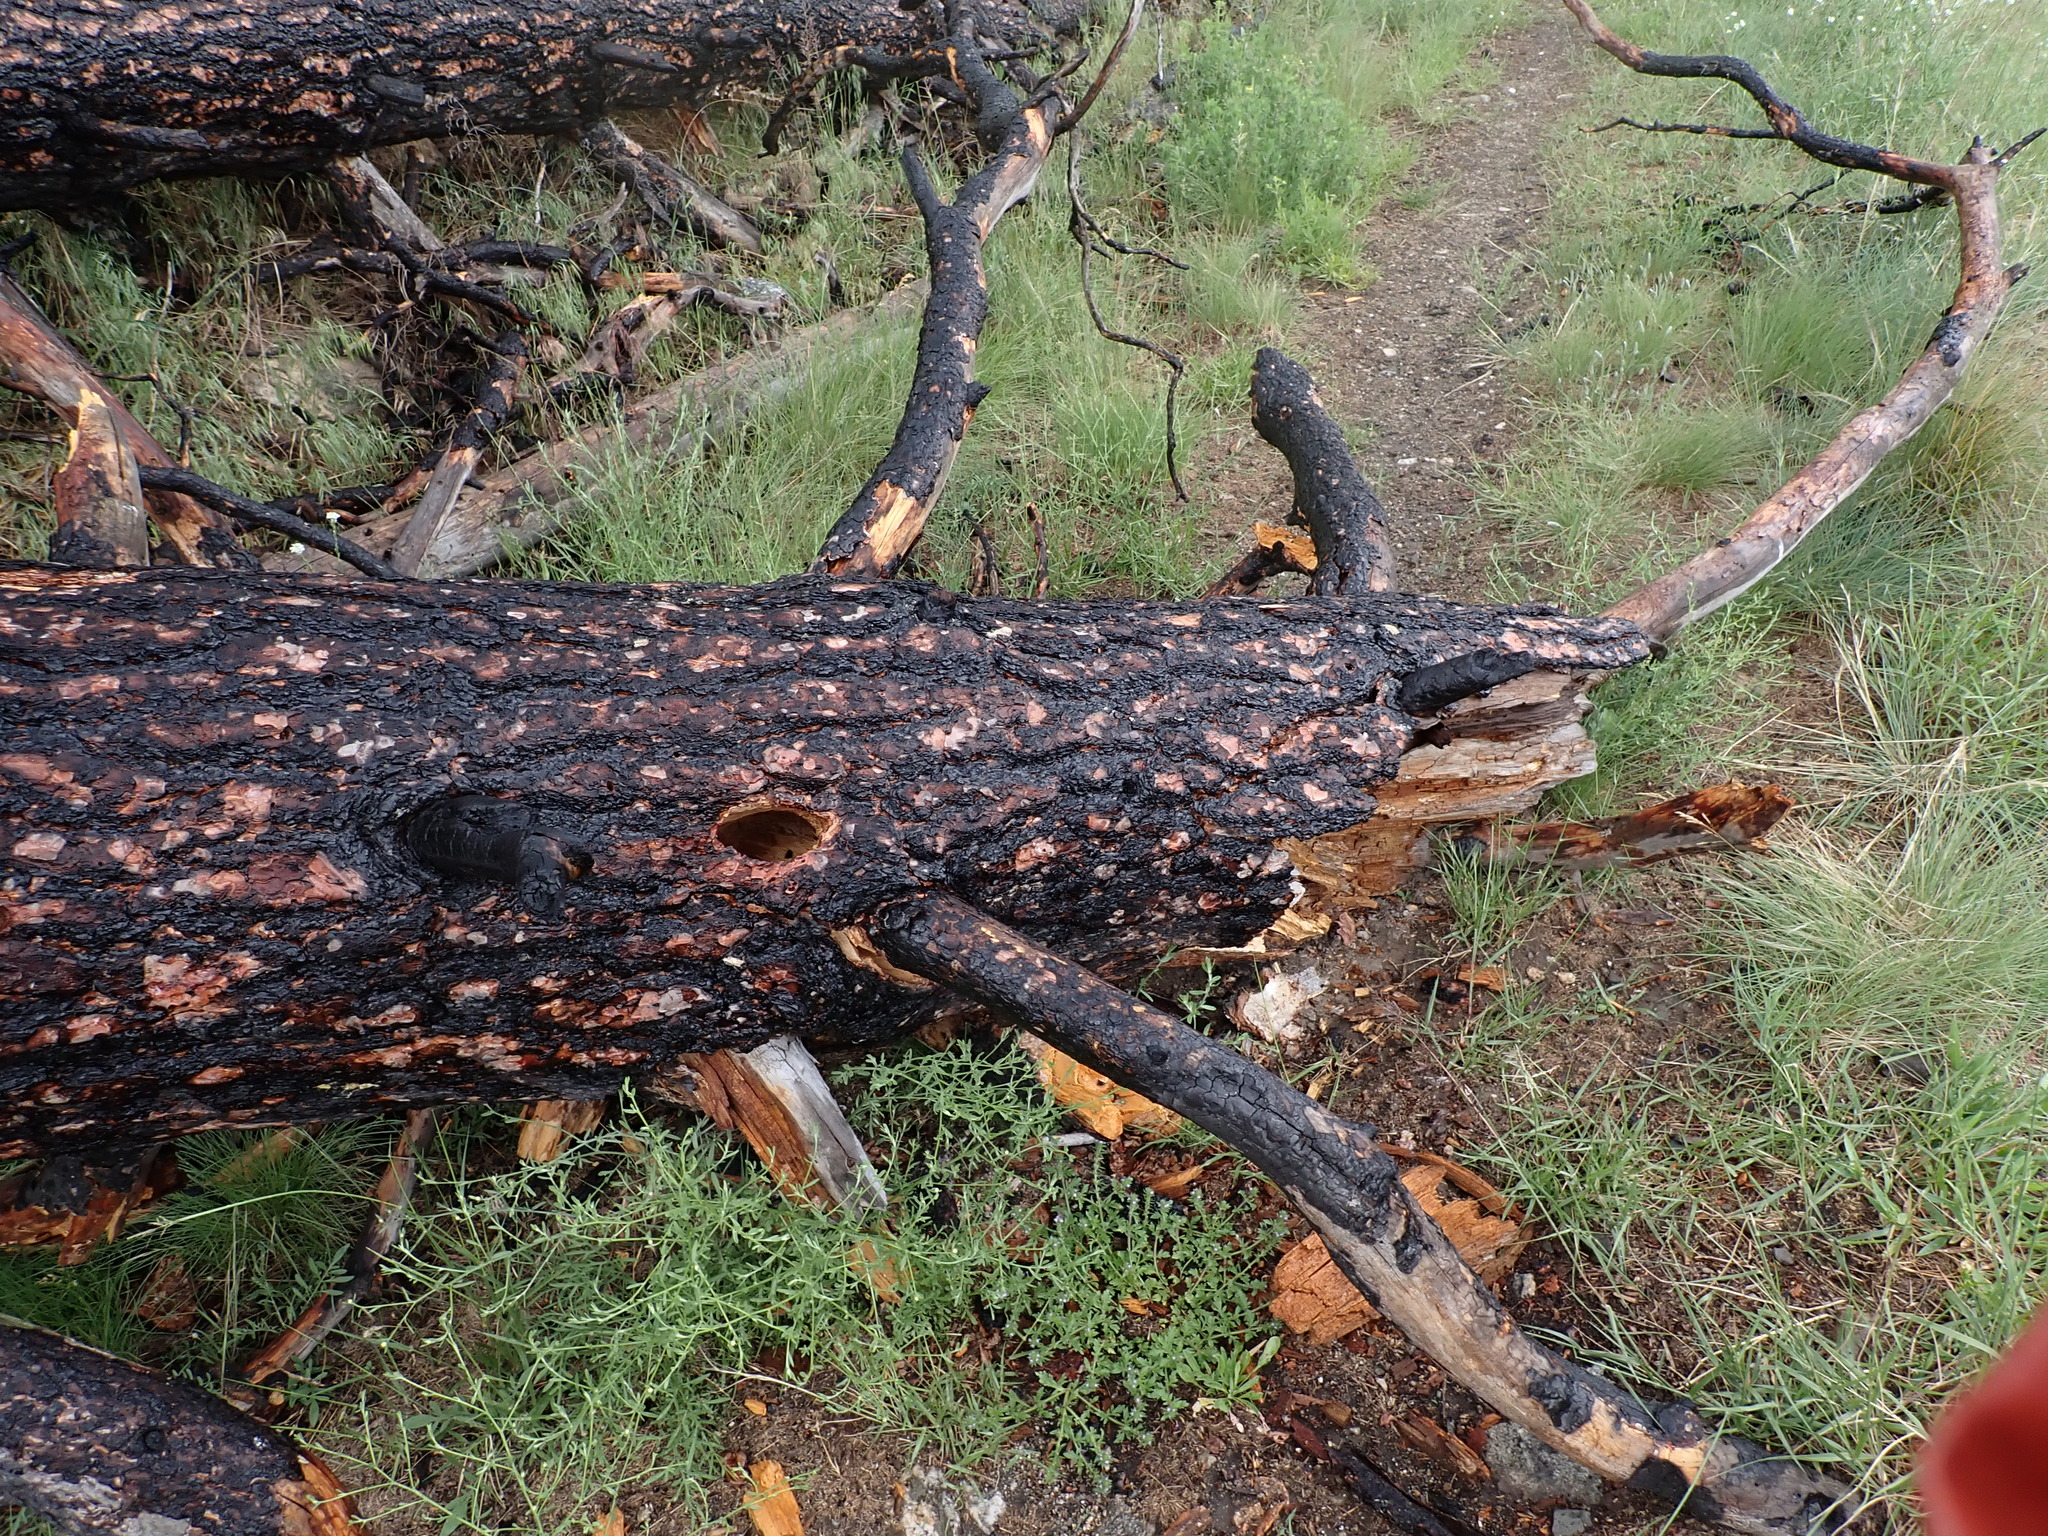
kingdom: Plantae
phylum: Tracheophyta
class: Pinopsida
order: Pinales
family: Pinaceae
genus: Pinus
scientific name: Pinus ponderosa
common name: Western yellow-pine
